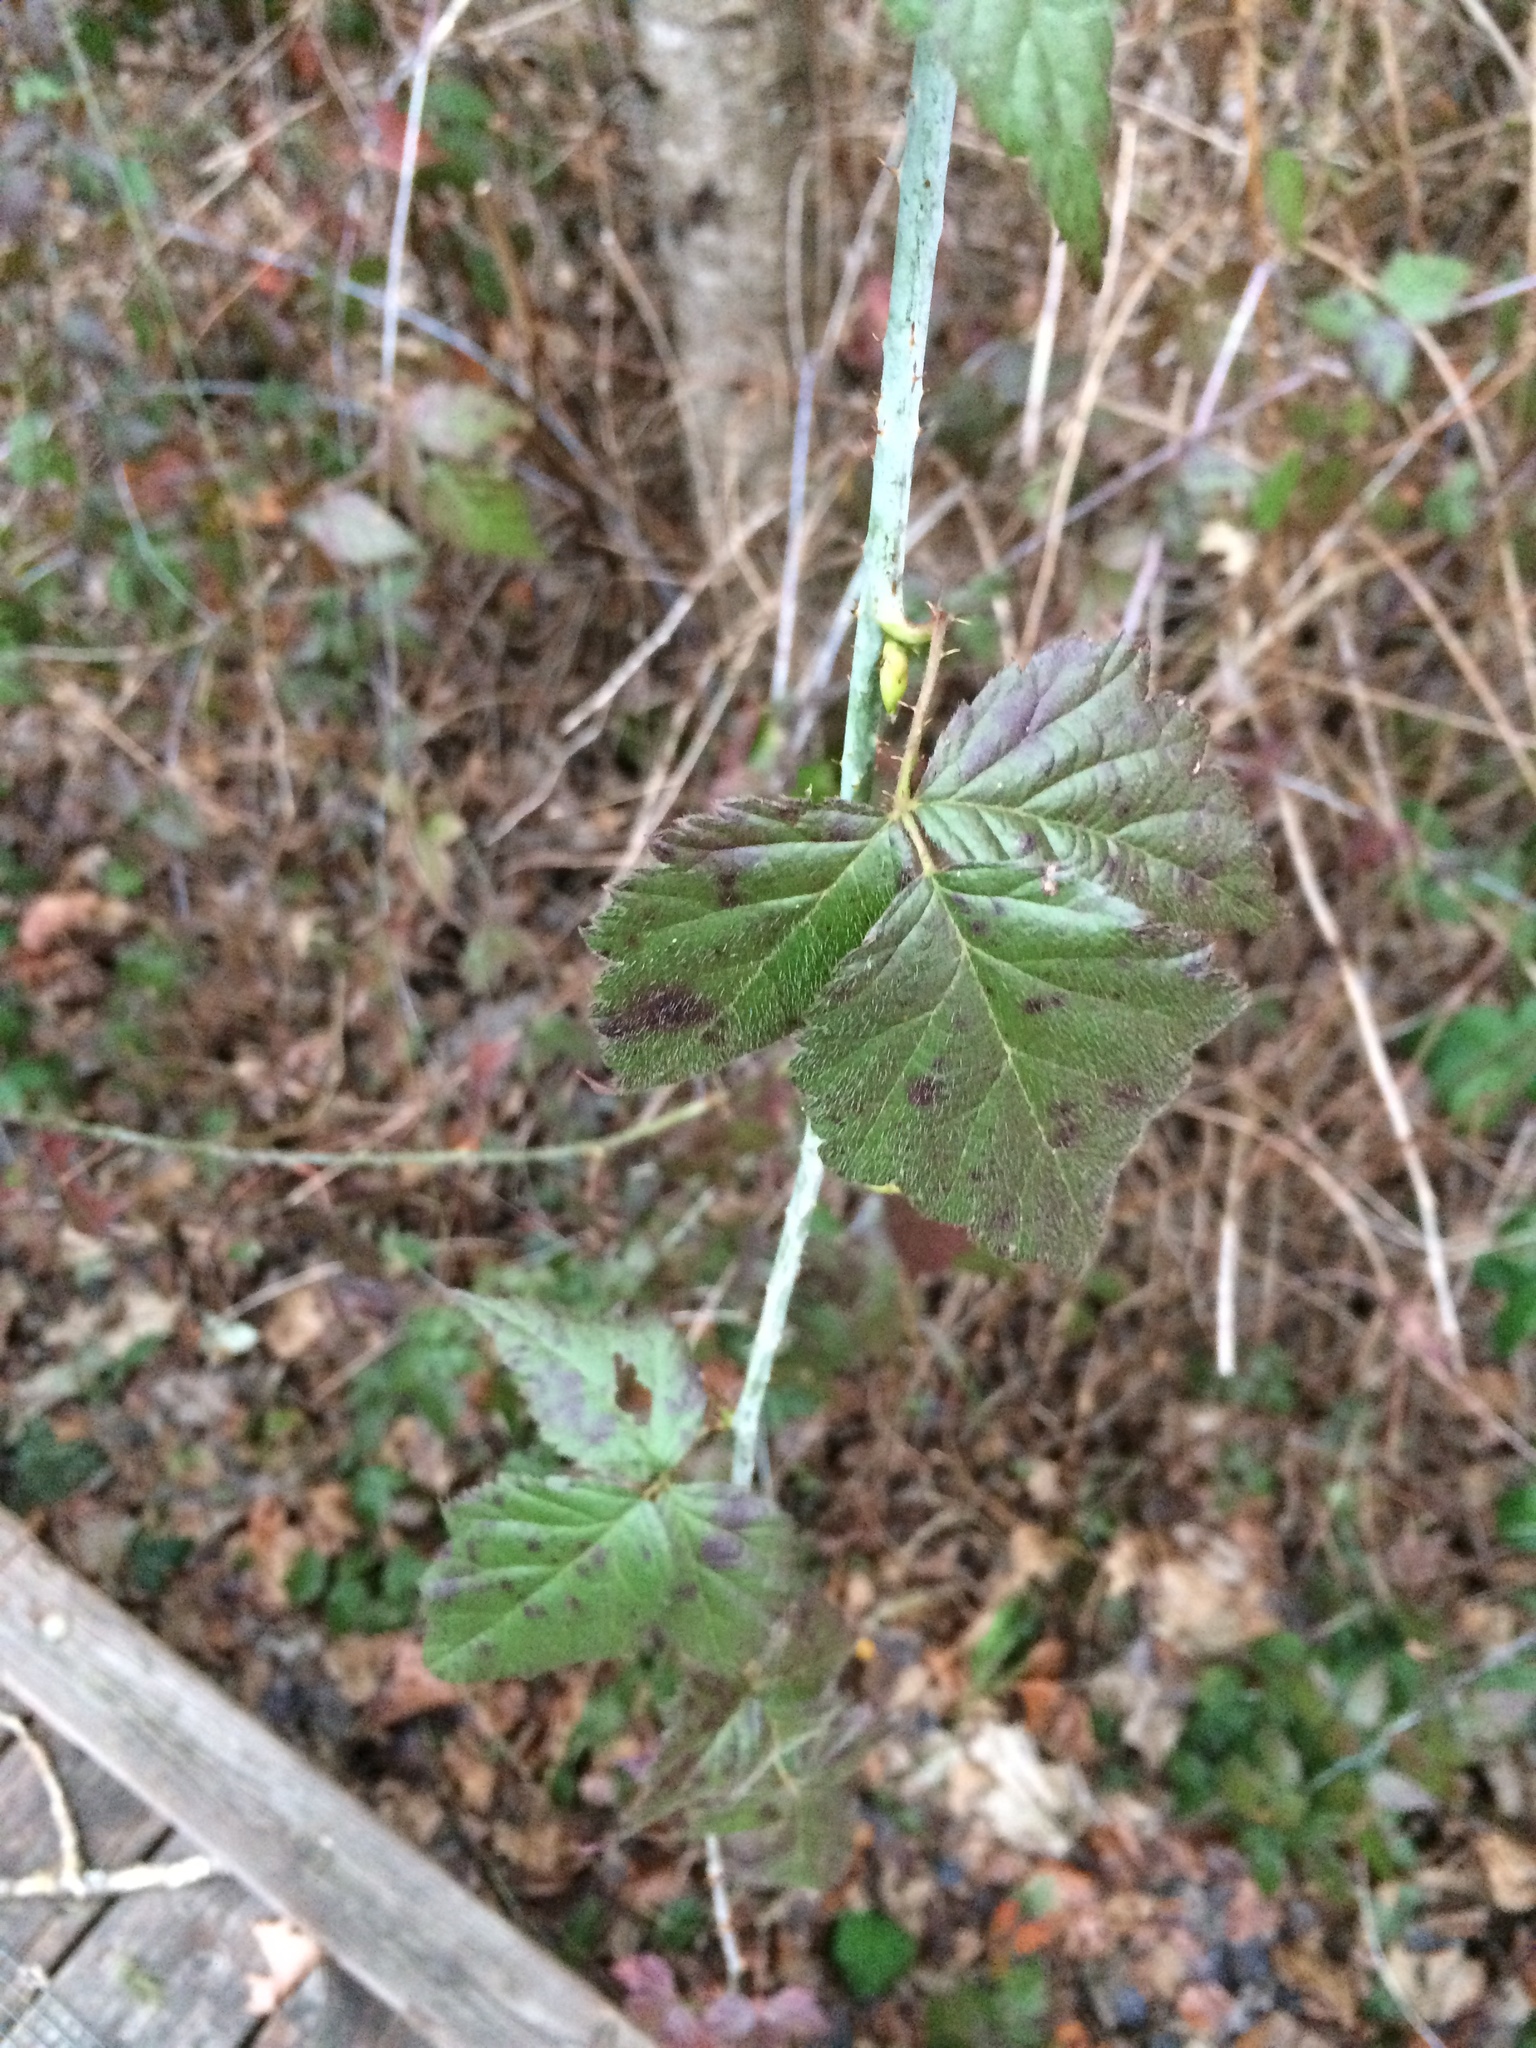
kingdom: Plantae
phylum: Tracheophyta
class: Magnoliopsida
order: Rosales
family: Rosaceae
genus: Rubus
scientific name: Rubus ursinus
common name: Pacific blackberry
